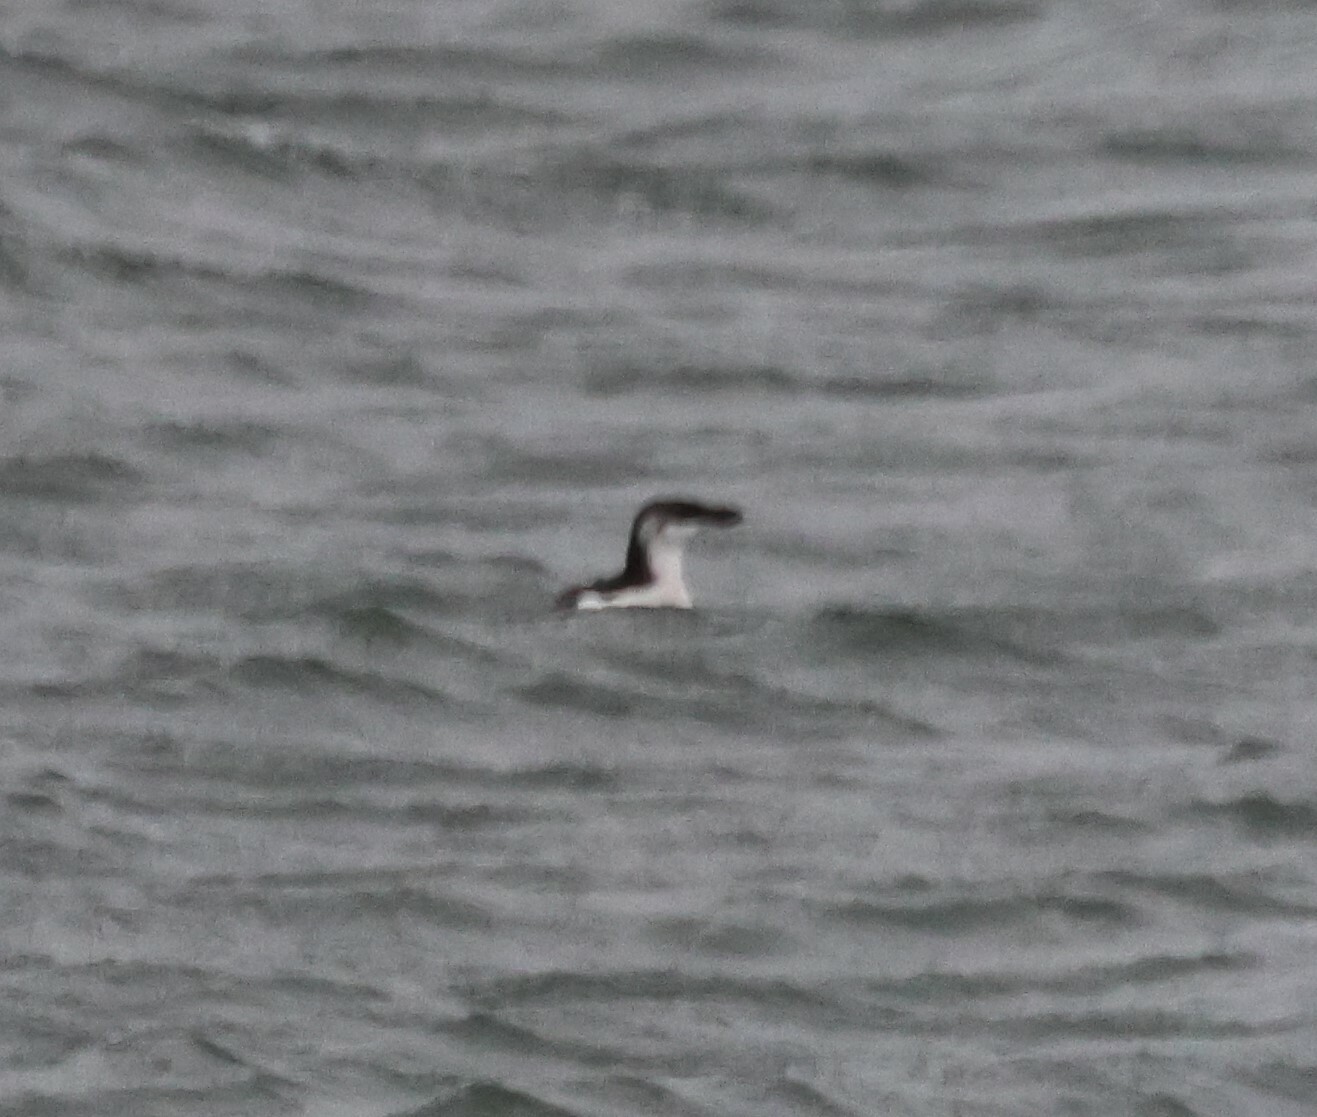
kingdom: Animalia
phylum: Chordata
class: Aves
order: Charadriiformes
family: Alcidae
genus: Alca
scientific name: Alca torda
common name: Razorbill
